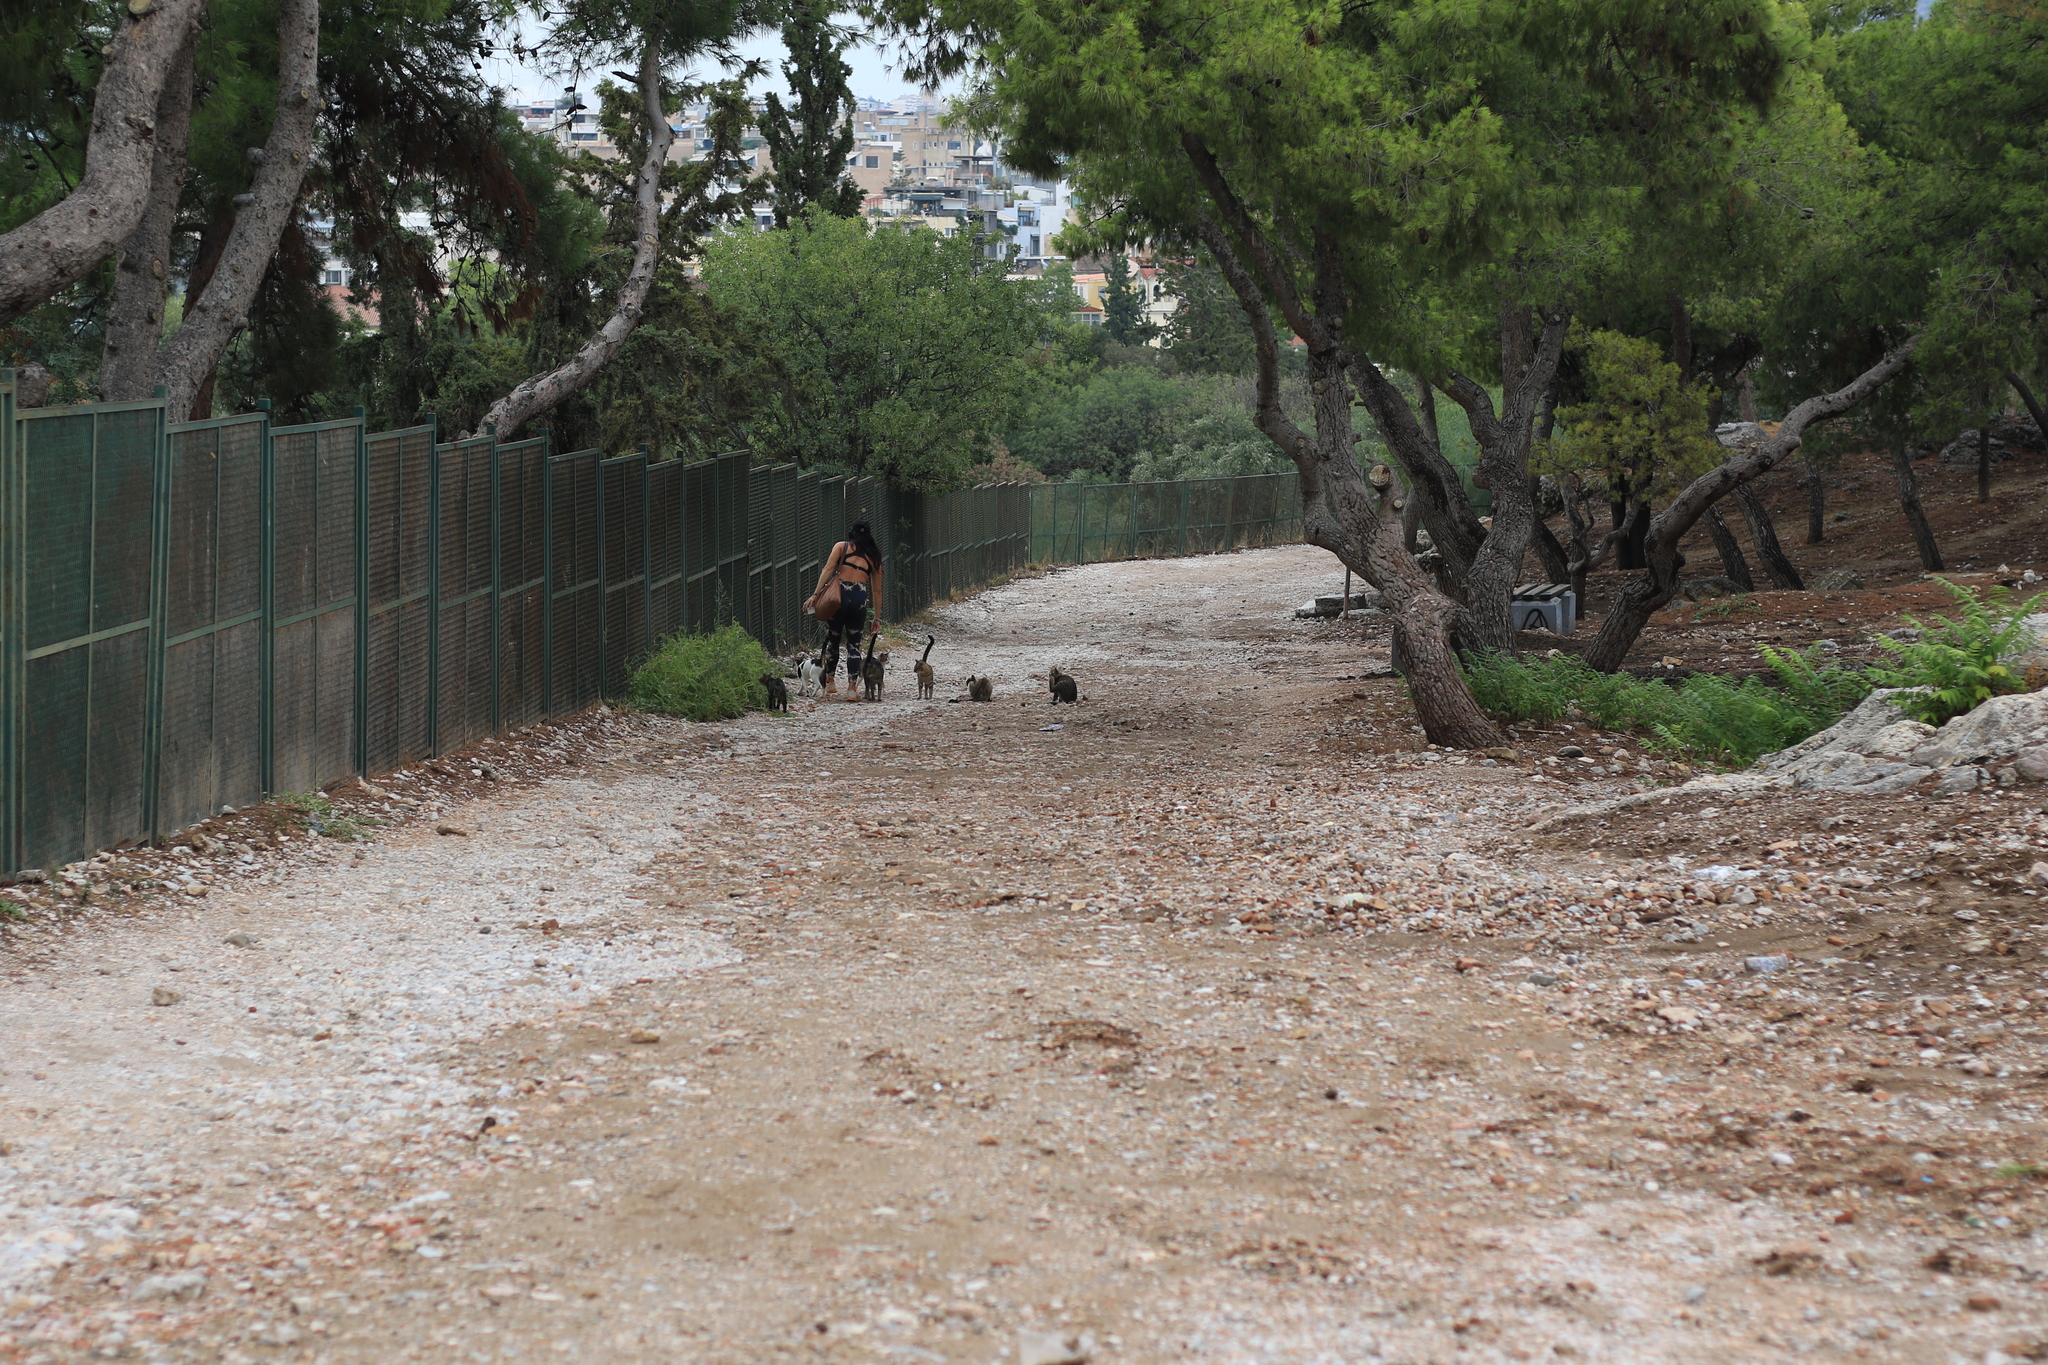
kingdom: Animalia
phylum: Chordata
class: Mammalia
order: Carnivora
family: Felidae
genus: Felis
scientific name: Felis catus
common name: Domestic cat
